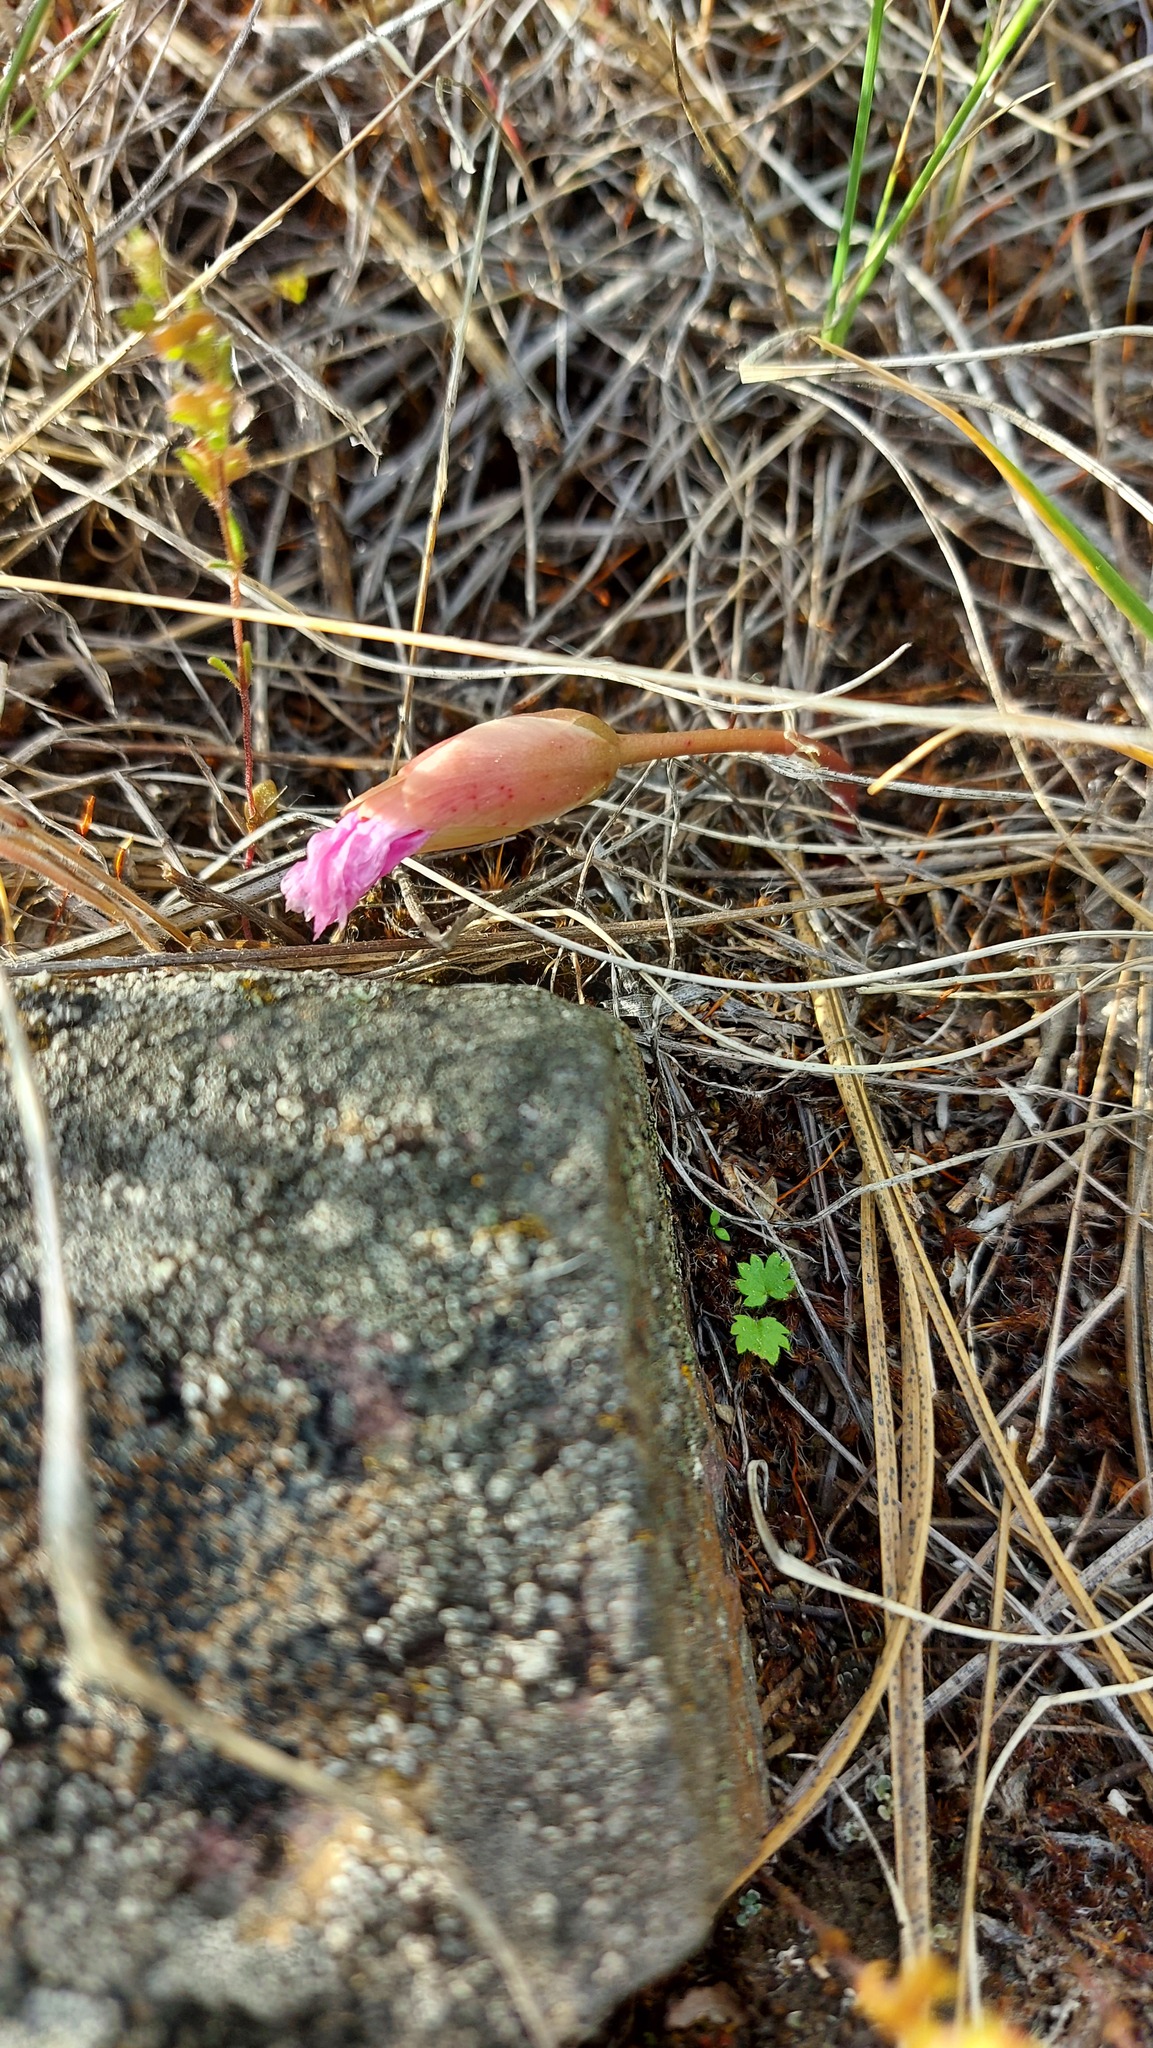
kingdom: Plantae
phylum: Tracheophyta
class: Magnoliopsida
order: Caryophyllales
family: Montiaceae
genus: Lewisia
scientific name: Lewisia rediviva
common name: Bitter-root
